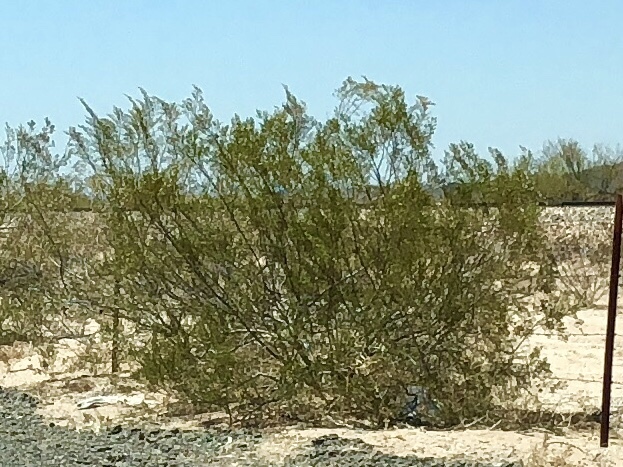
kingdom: Plantae
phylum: Tracheophyta
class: Magnoliopsida
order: Zygophyllales
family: Zygophyllaceae
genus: Larrea
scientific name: Larrea tridentata
